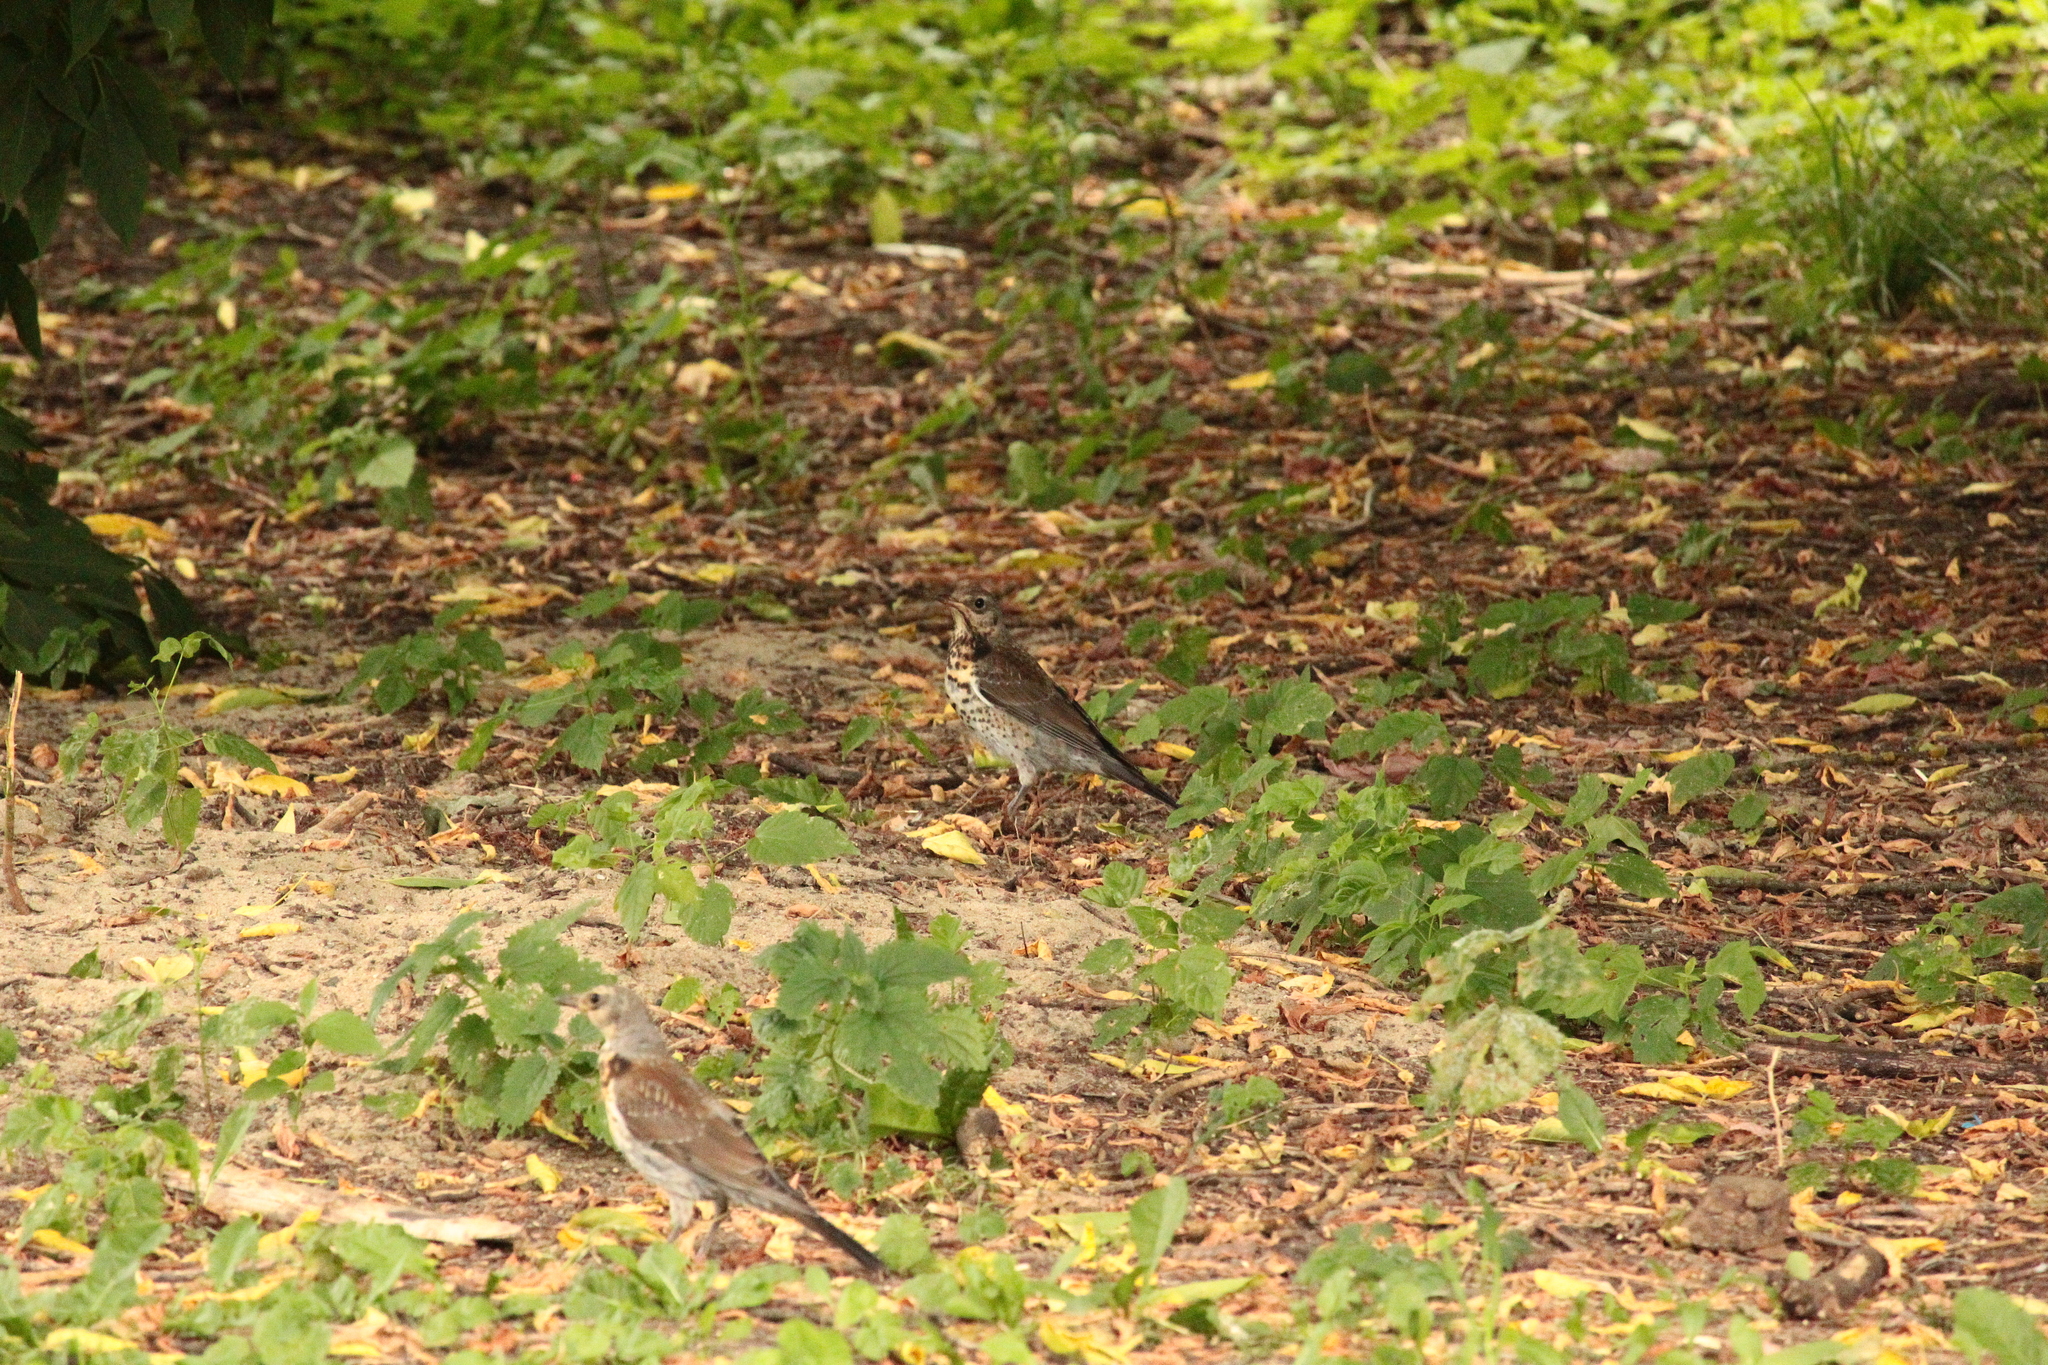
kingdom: Animalia
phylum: Chordata
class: Aves
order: Passeriformes
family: Turdidae
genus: Turdus
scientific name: Turdus pilaris
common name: Fieldfare
